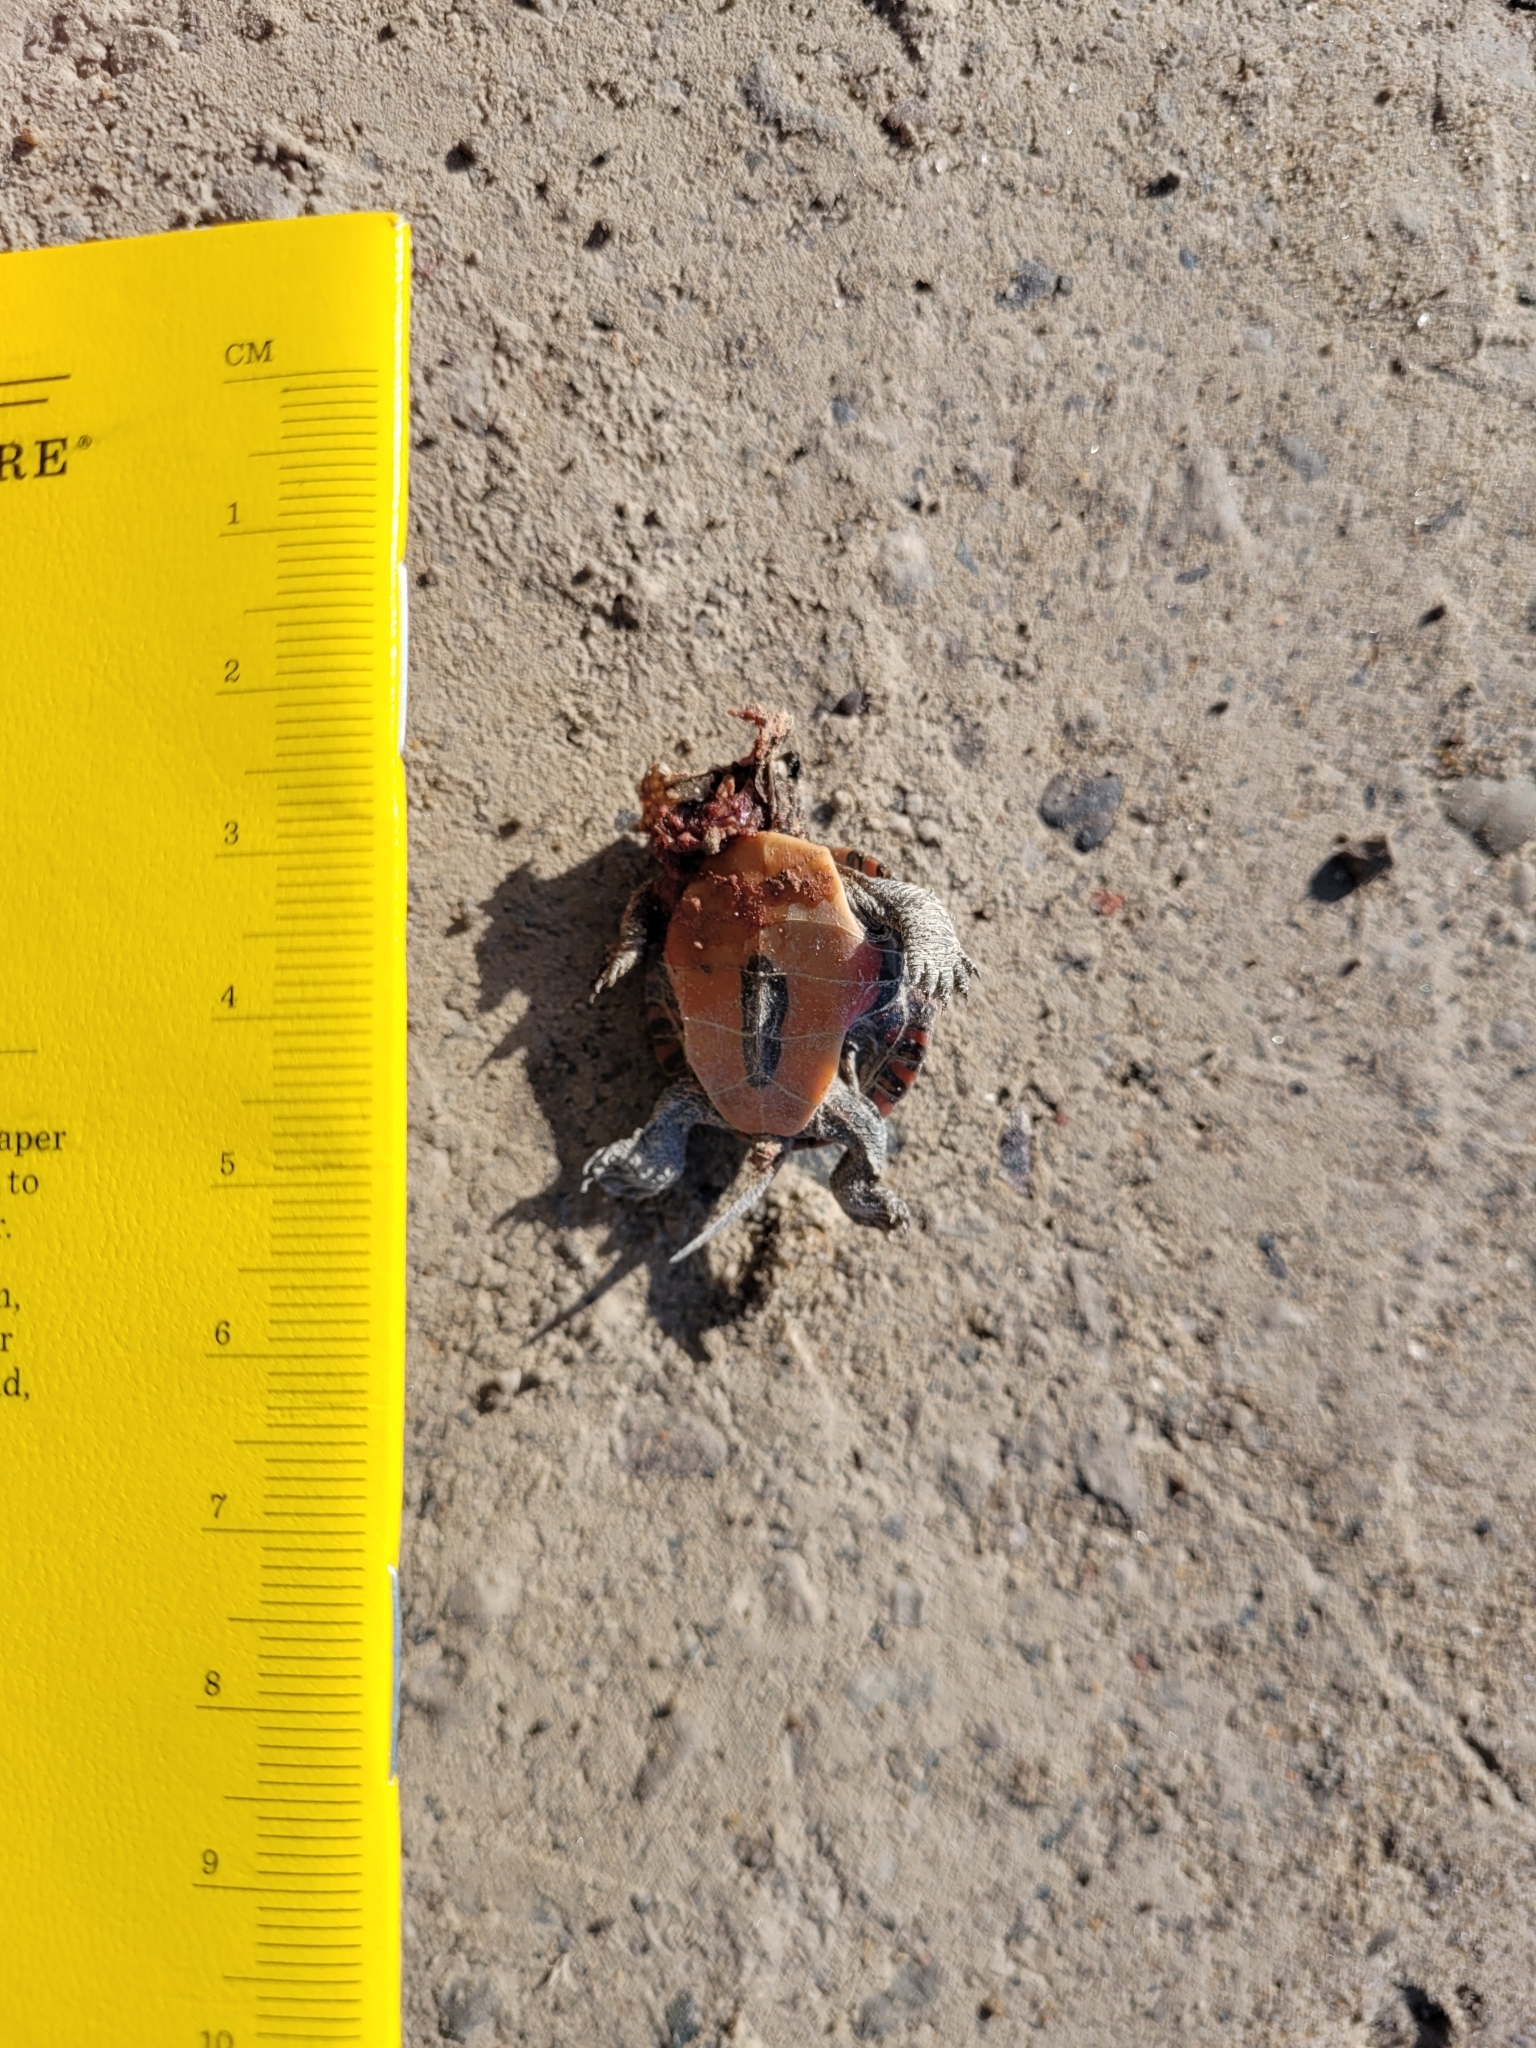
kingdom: Animalia
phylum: Chordata
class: Testudines
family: Emydidae
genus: Chrysemys
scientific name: Chrysemys picta
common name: Painted turtle
